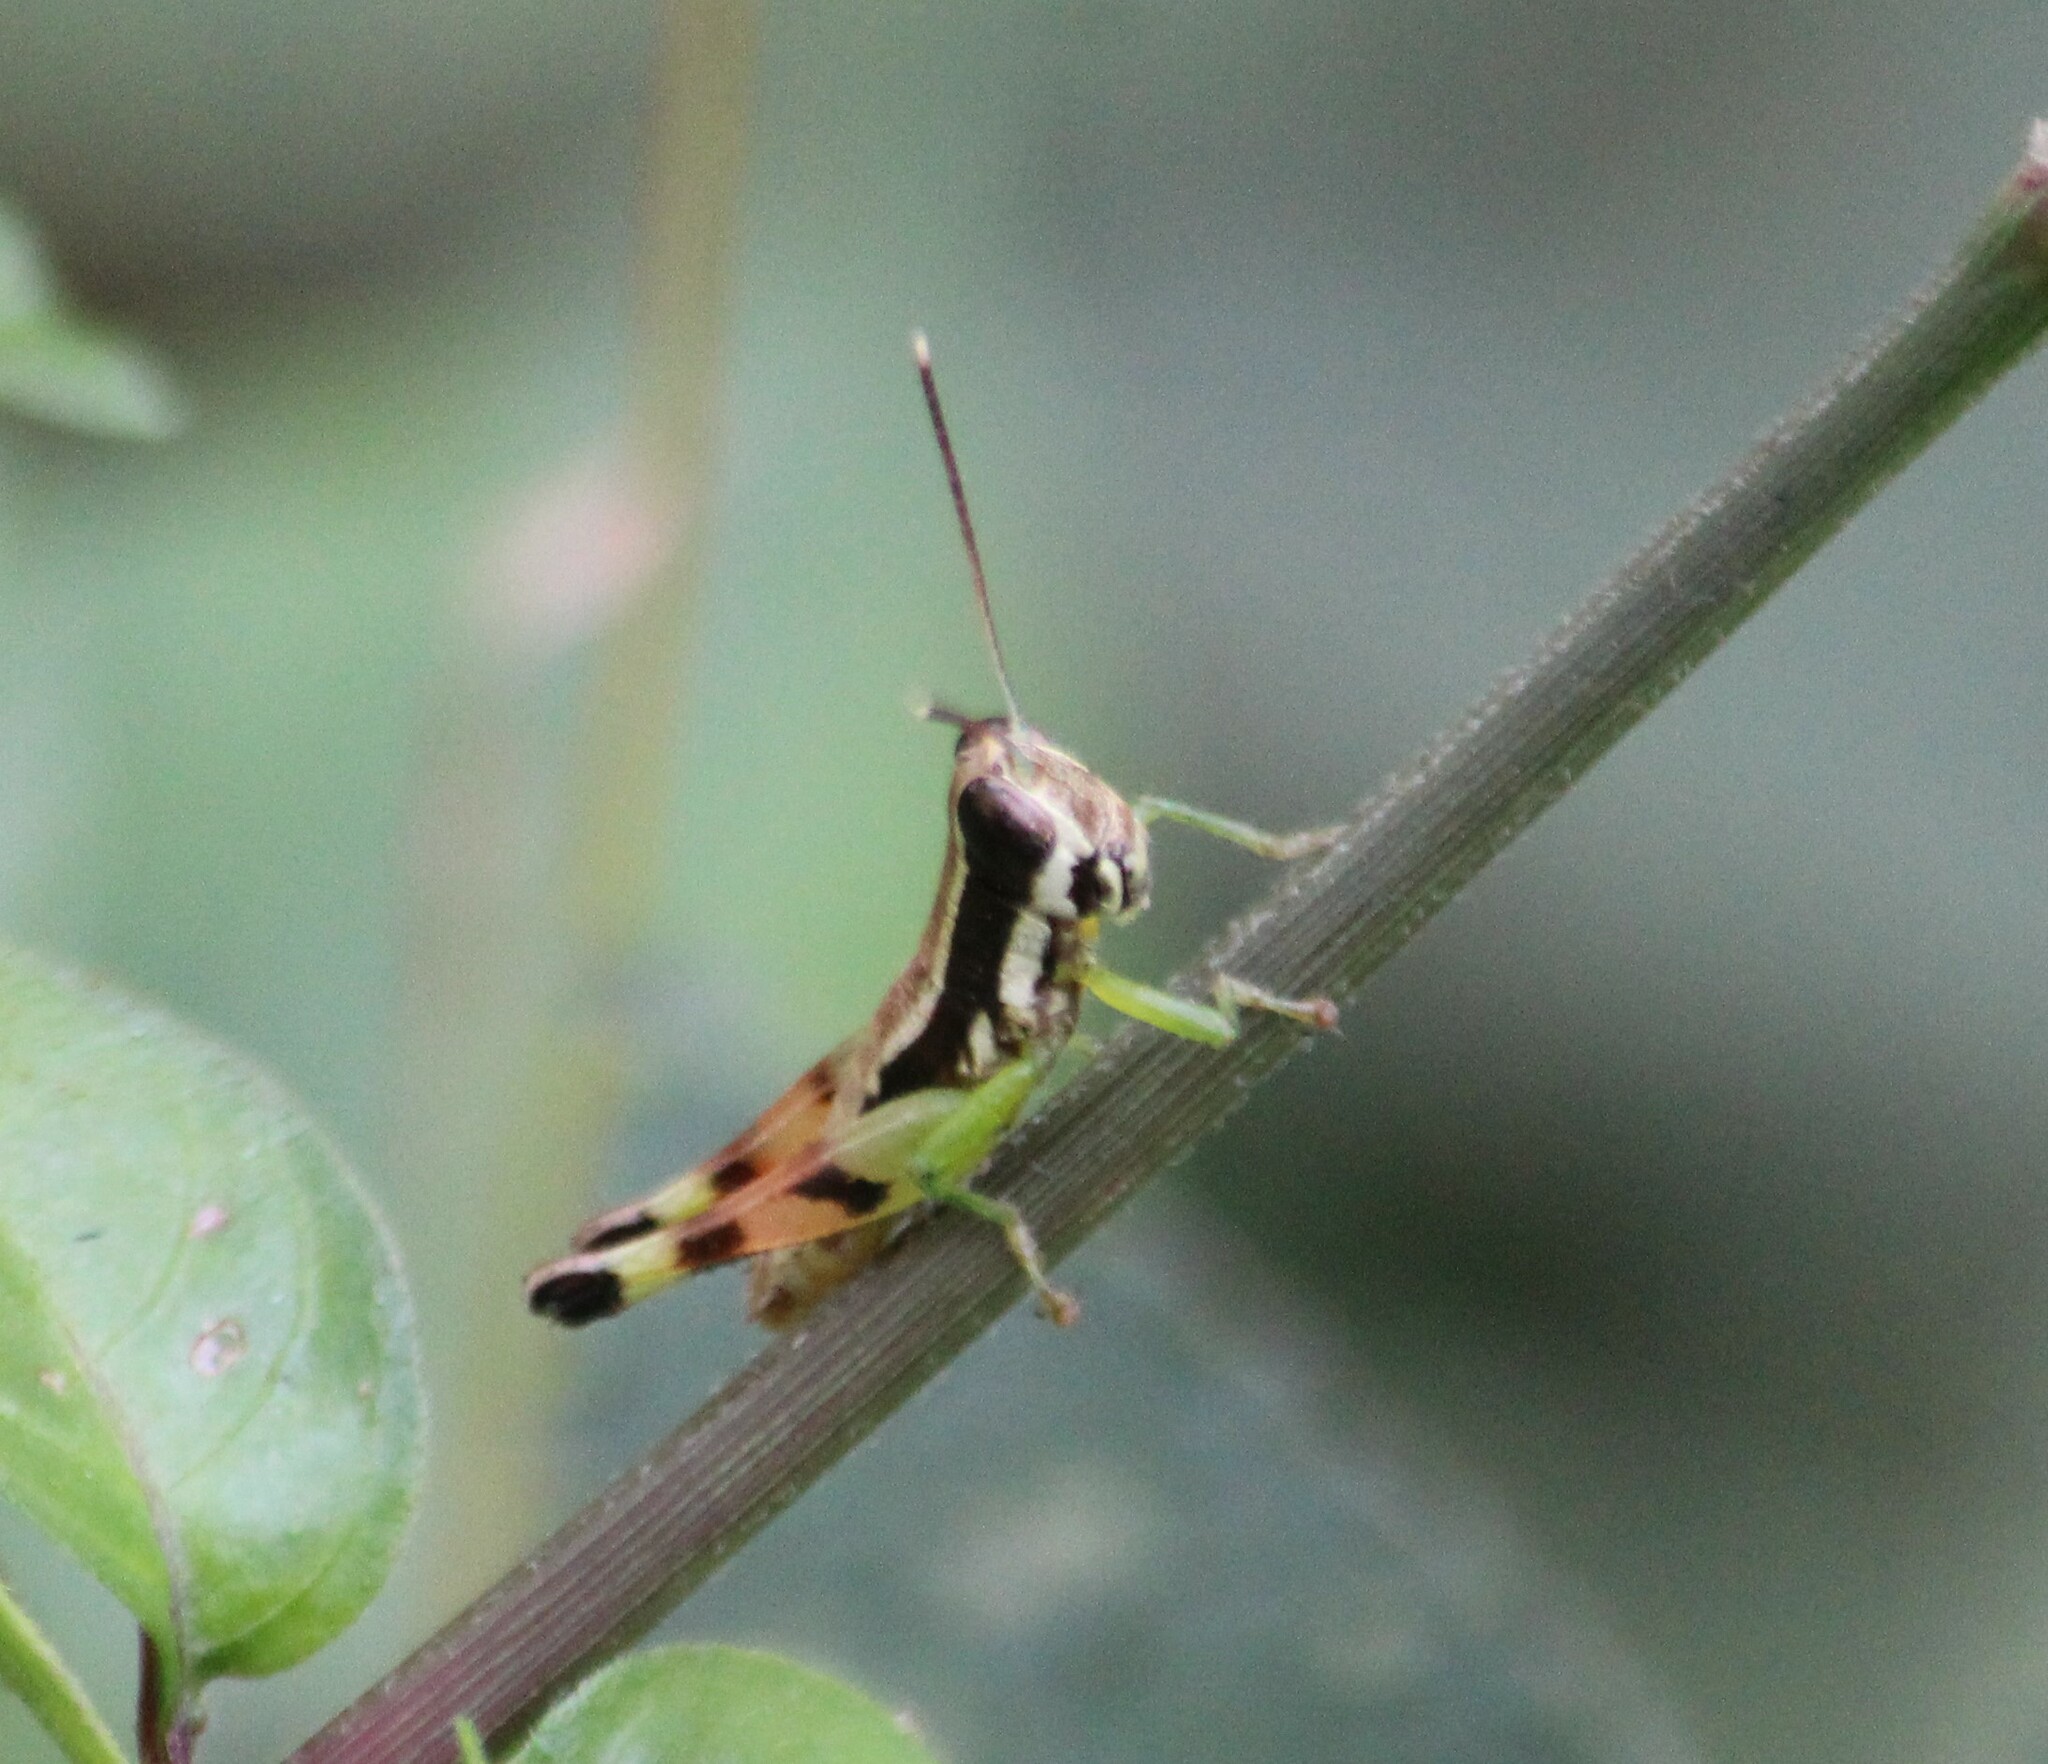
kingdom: Animalia
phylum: Arthropoda
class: Insecta
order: Orthoptera
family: Acrididae
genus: Chitaura
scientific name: Chitaura indica
